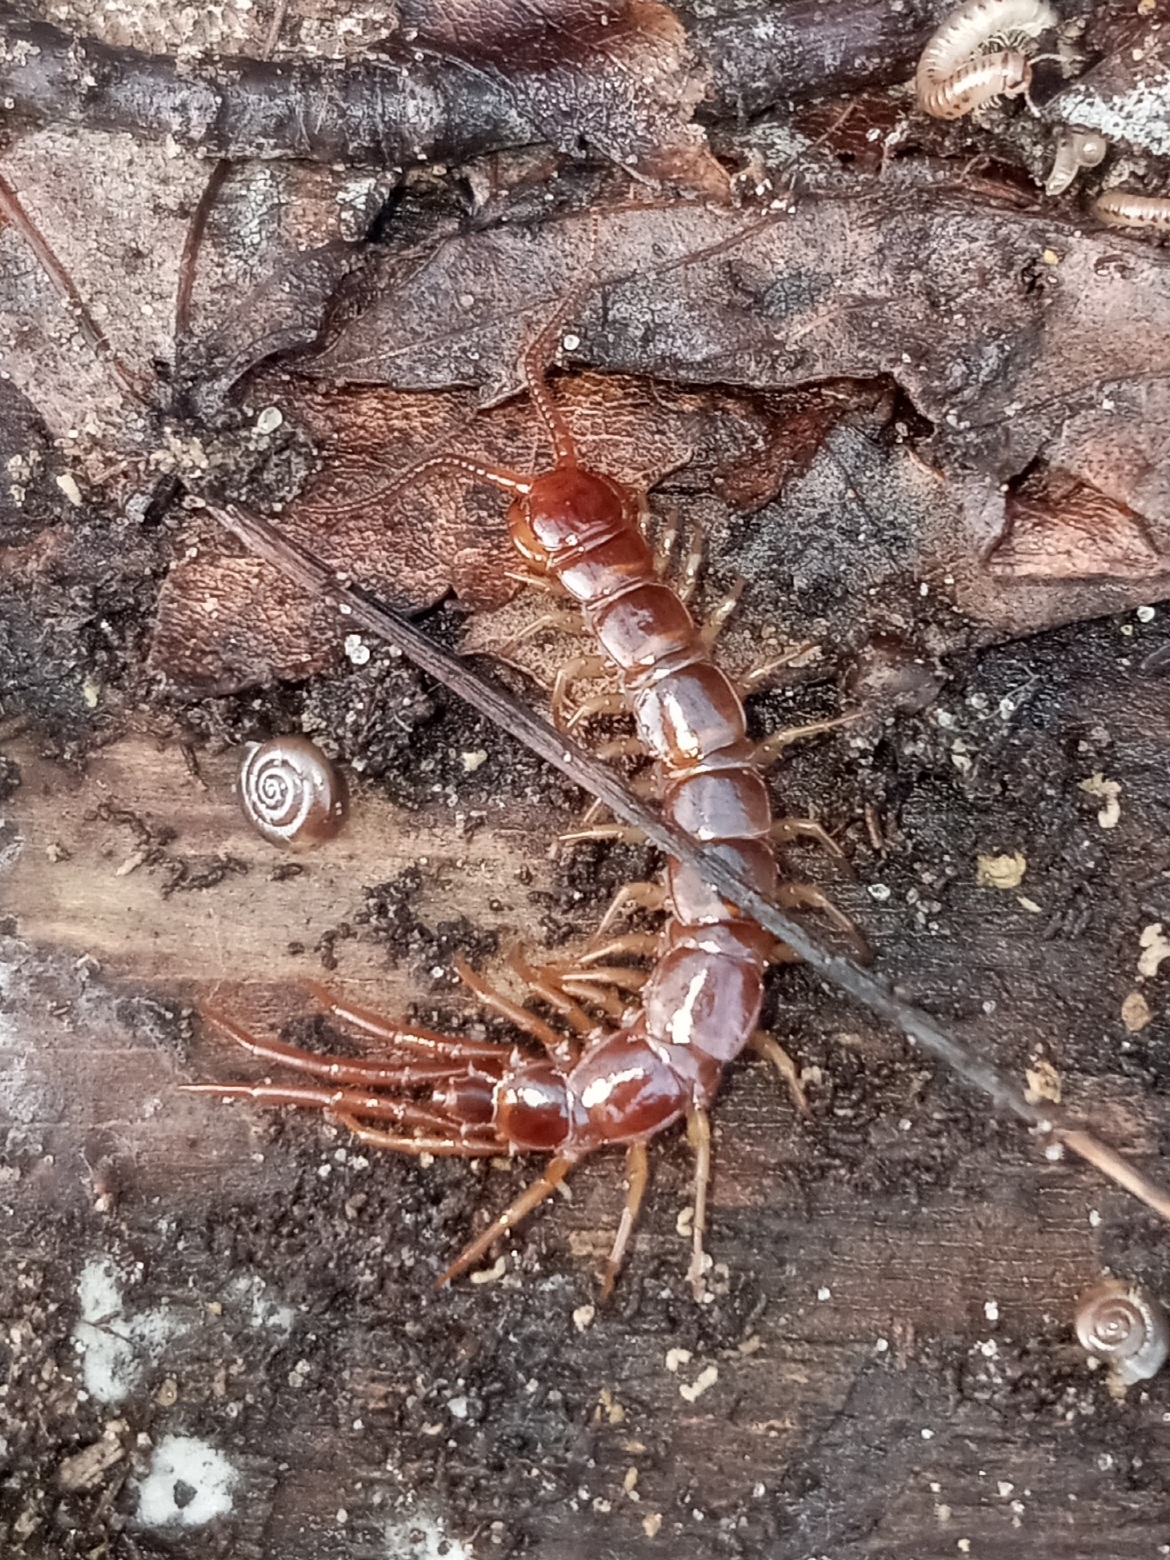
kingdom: Animalia
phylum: Arthropoda
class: Chilopoda
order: Lithobiomorpha
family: Lithobiidae
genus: Lithobius
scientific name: Lithobius forficatus
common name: Centipede
